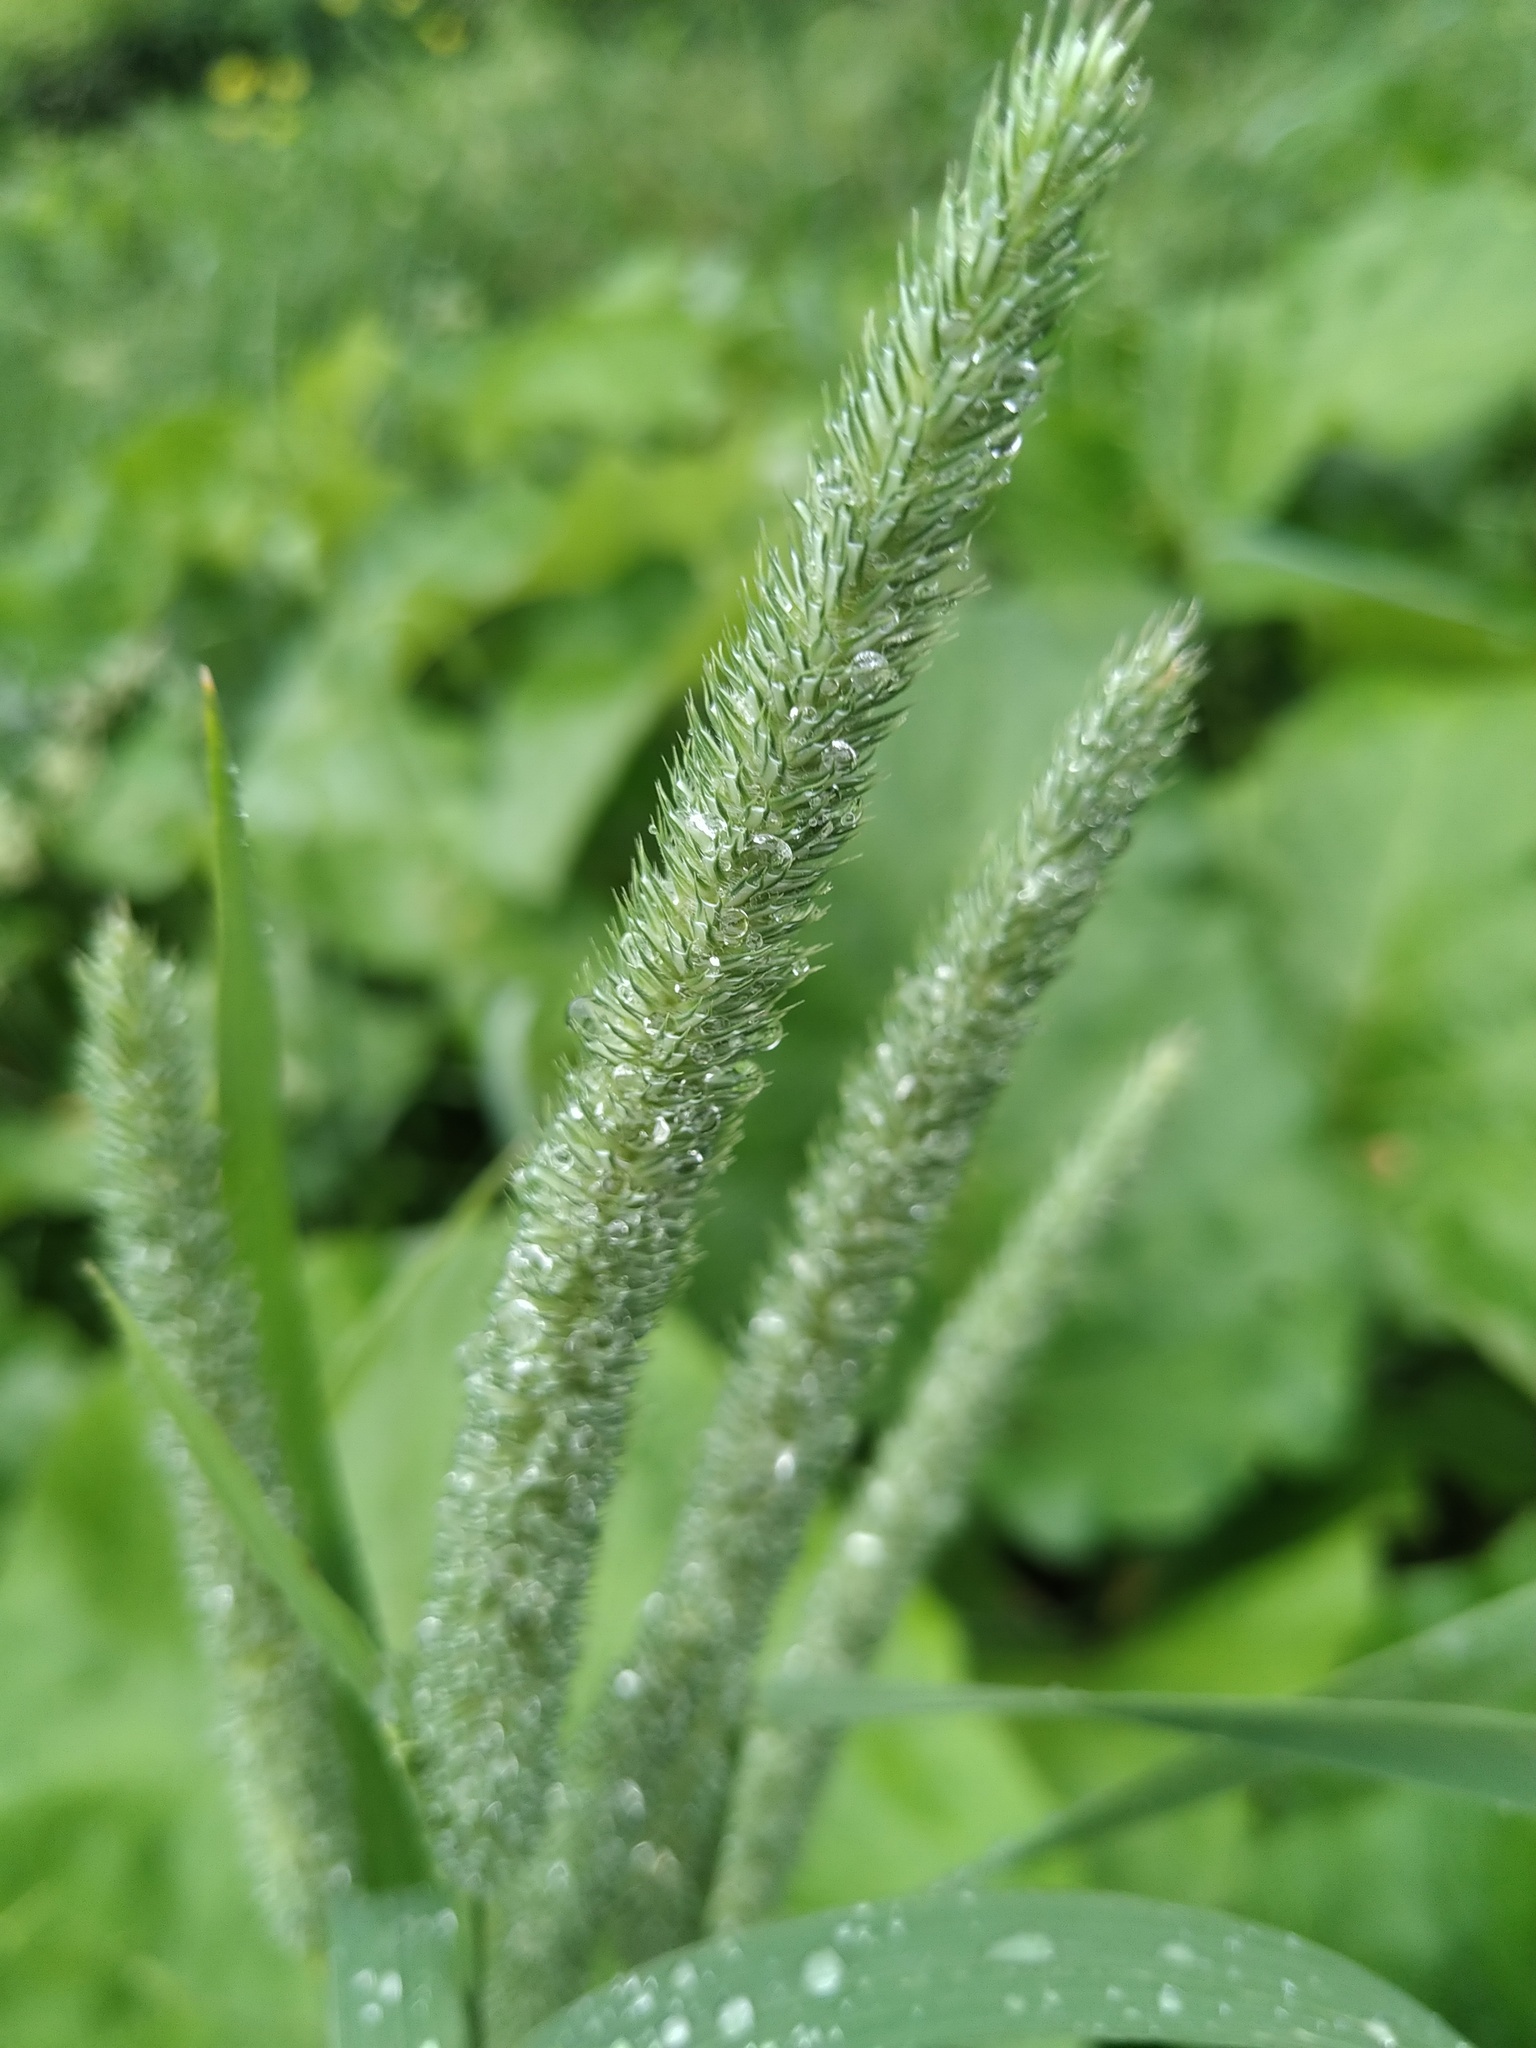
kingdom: Plantae
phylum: Tracheophyta
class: Liliopsida
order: Poales
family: Poaceae
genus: Phleum
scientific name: Phleum pratense
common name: Timothy grass
